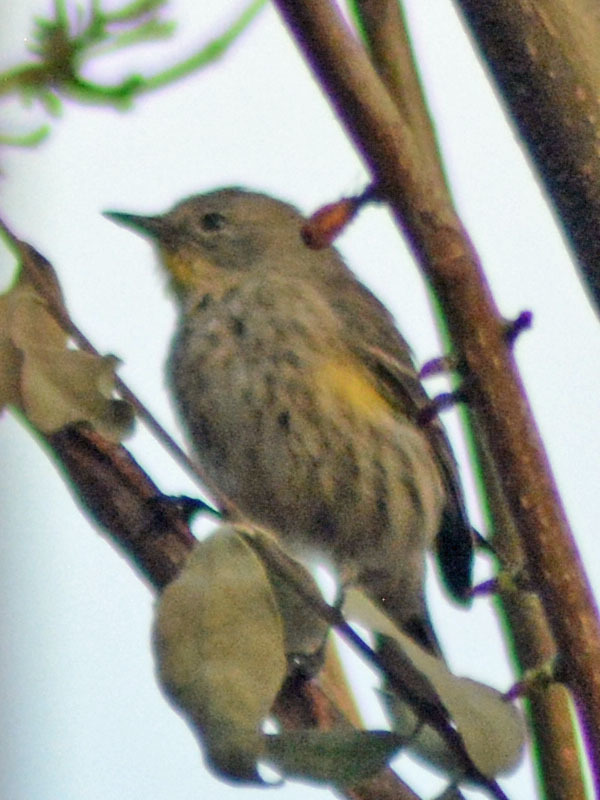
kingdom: Animalia
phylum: Chordata
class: Aves
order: Passeriformes
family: Parulidae
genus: Setophaga
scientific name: Setophaga auduboni
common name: Audubon's warbler
